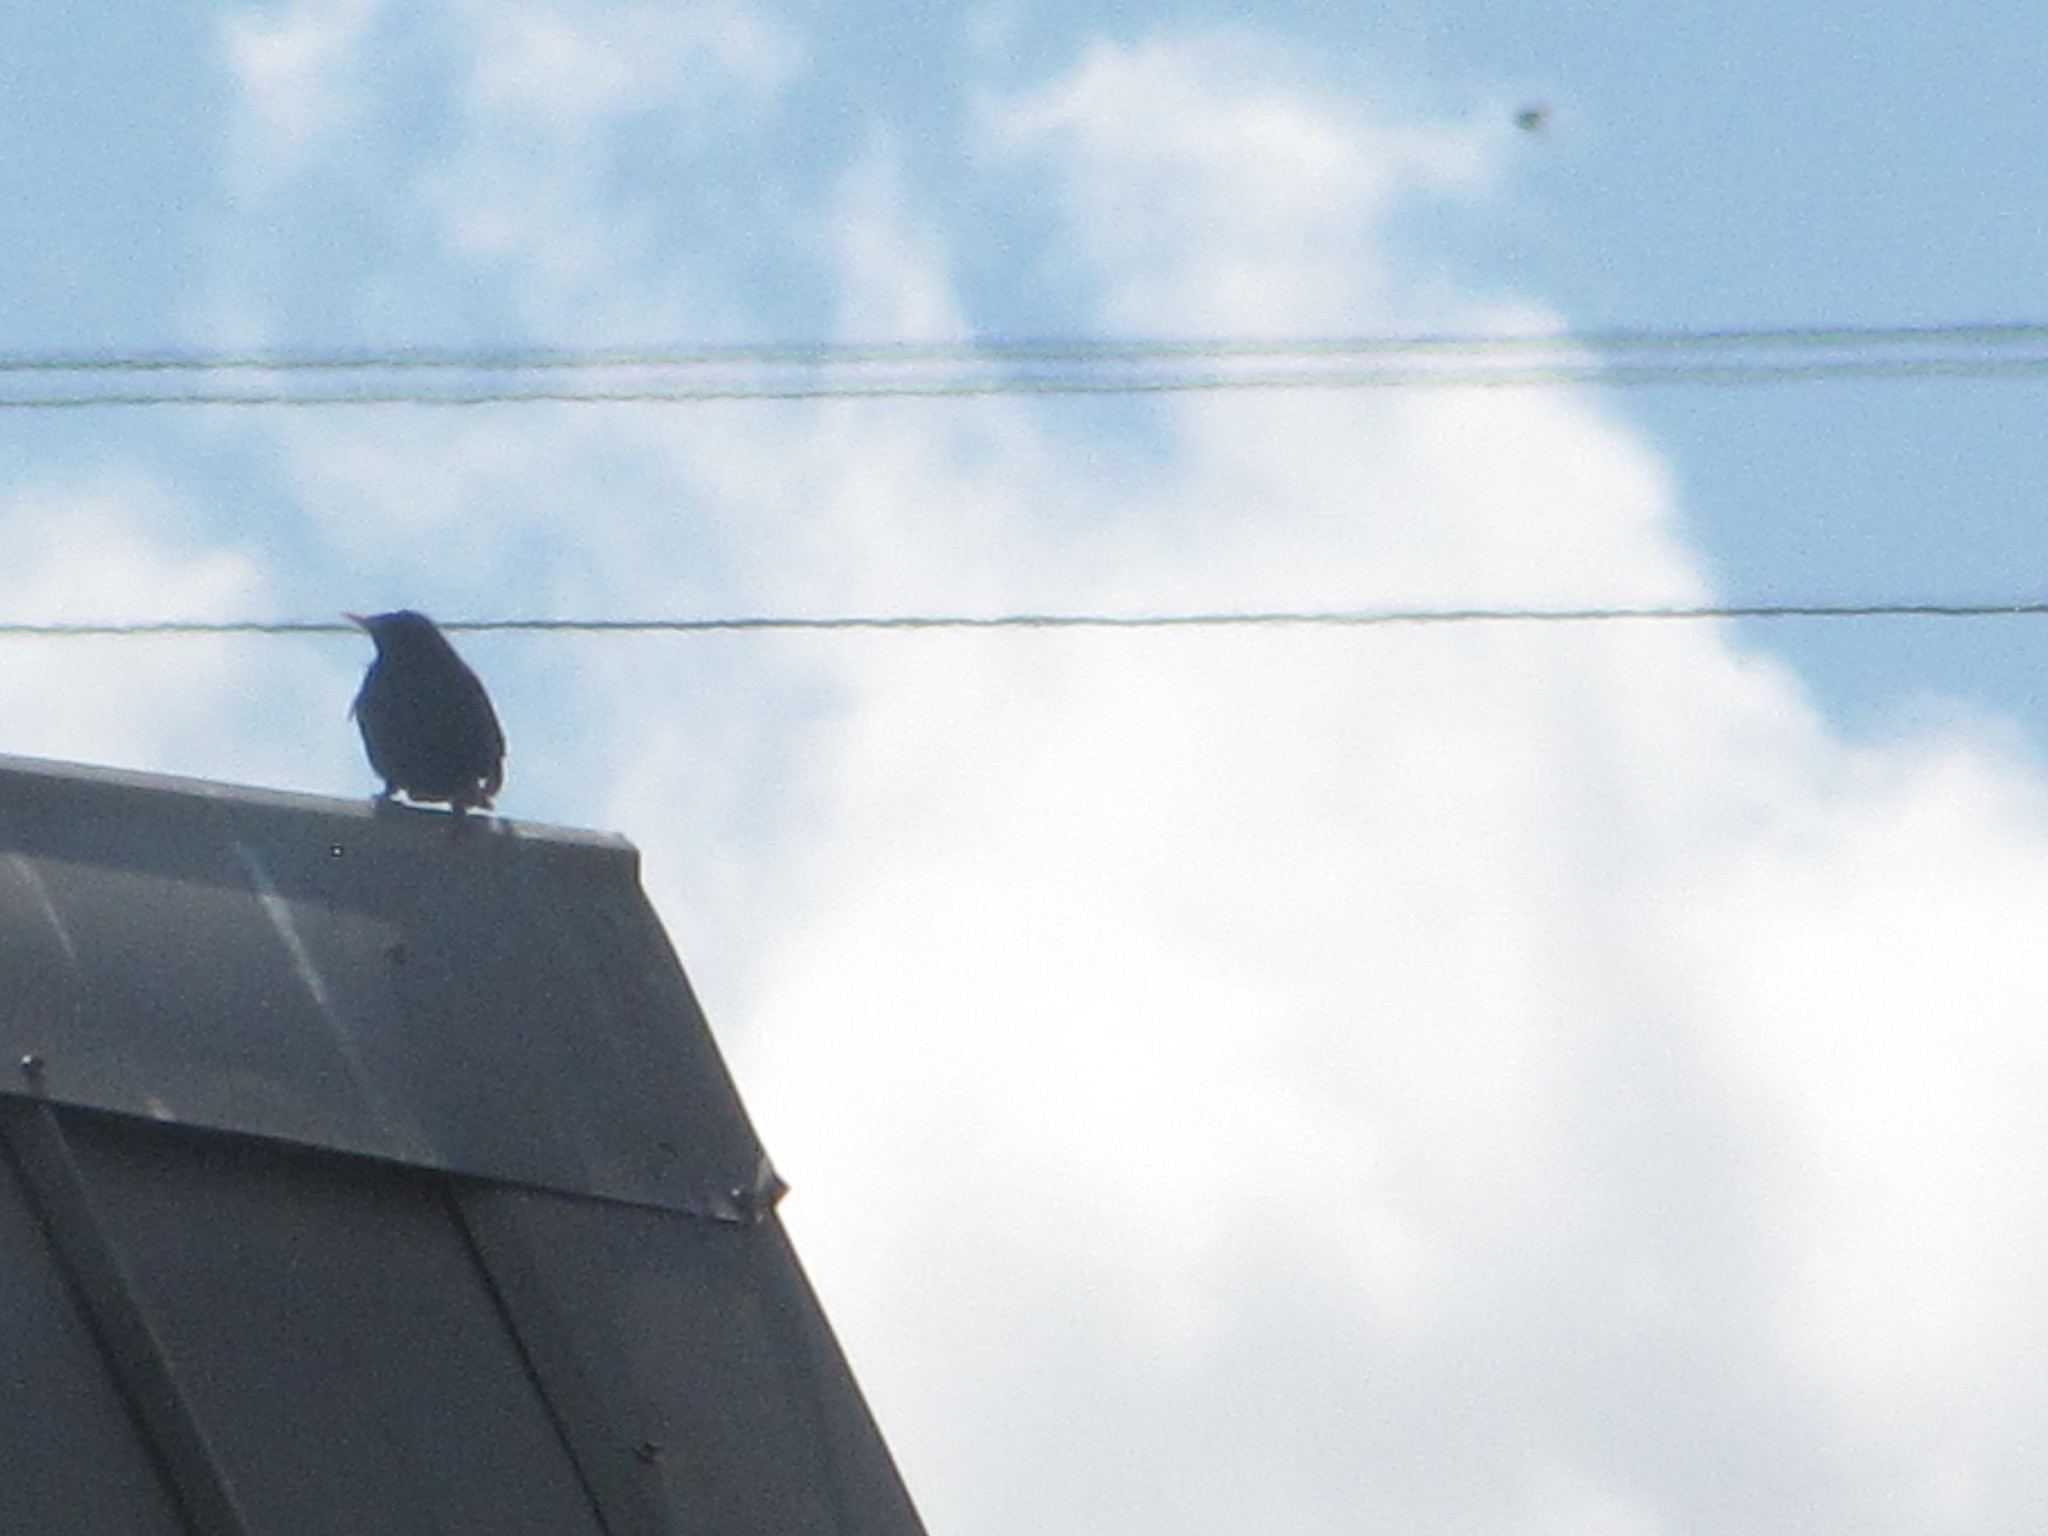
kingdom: Animalia
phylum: Chordata
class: Aves
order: Passeriformes
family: Sturnidae
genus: Sturnus
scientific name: Sturnus vulgaris
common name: Common starling
